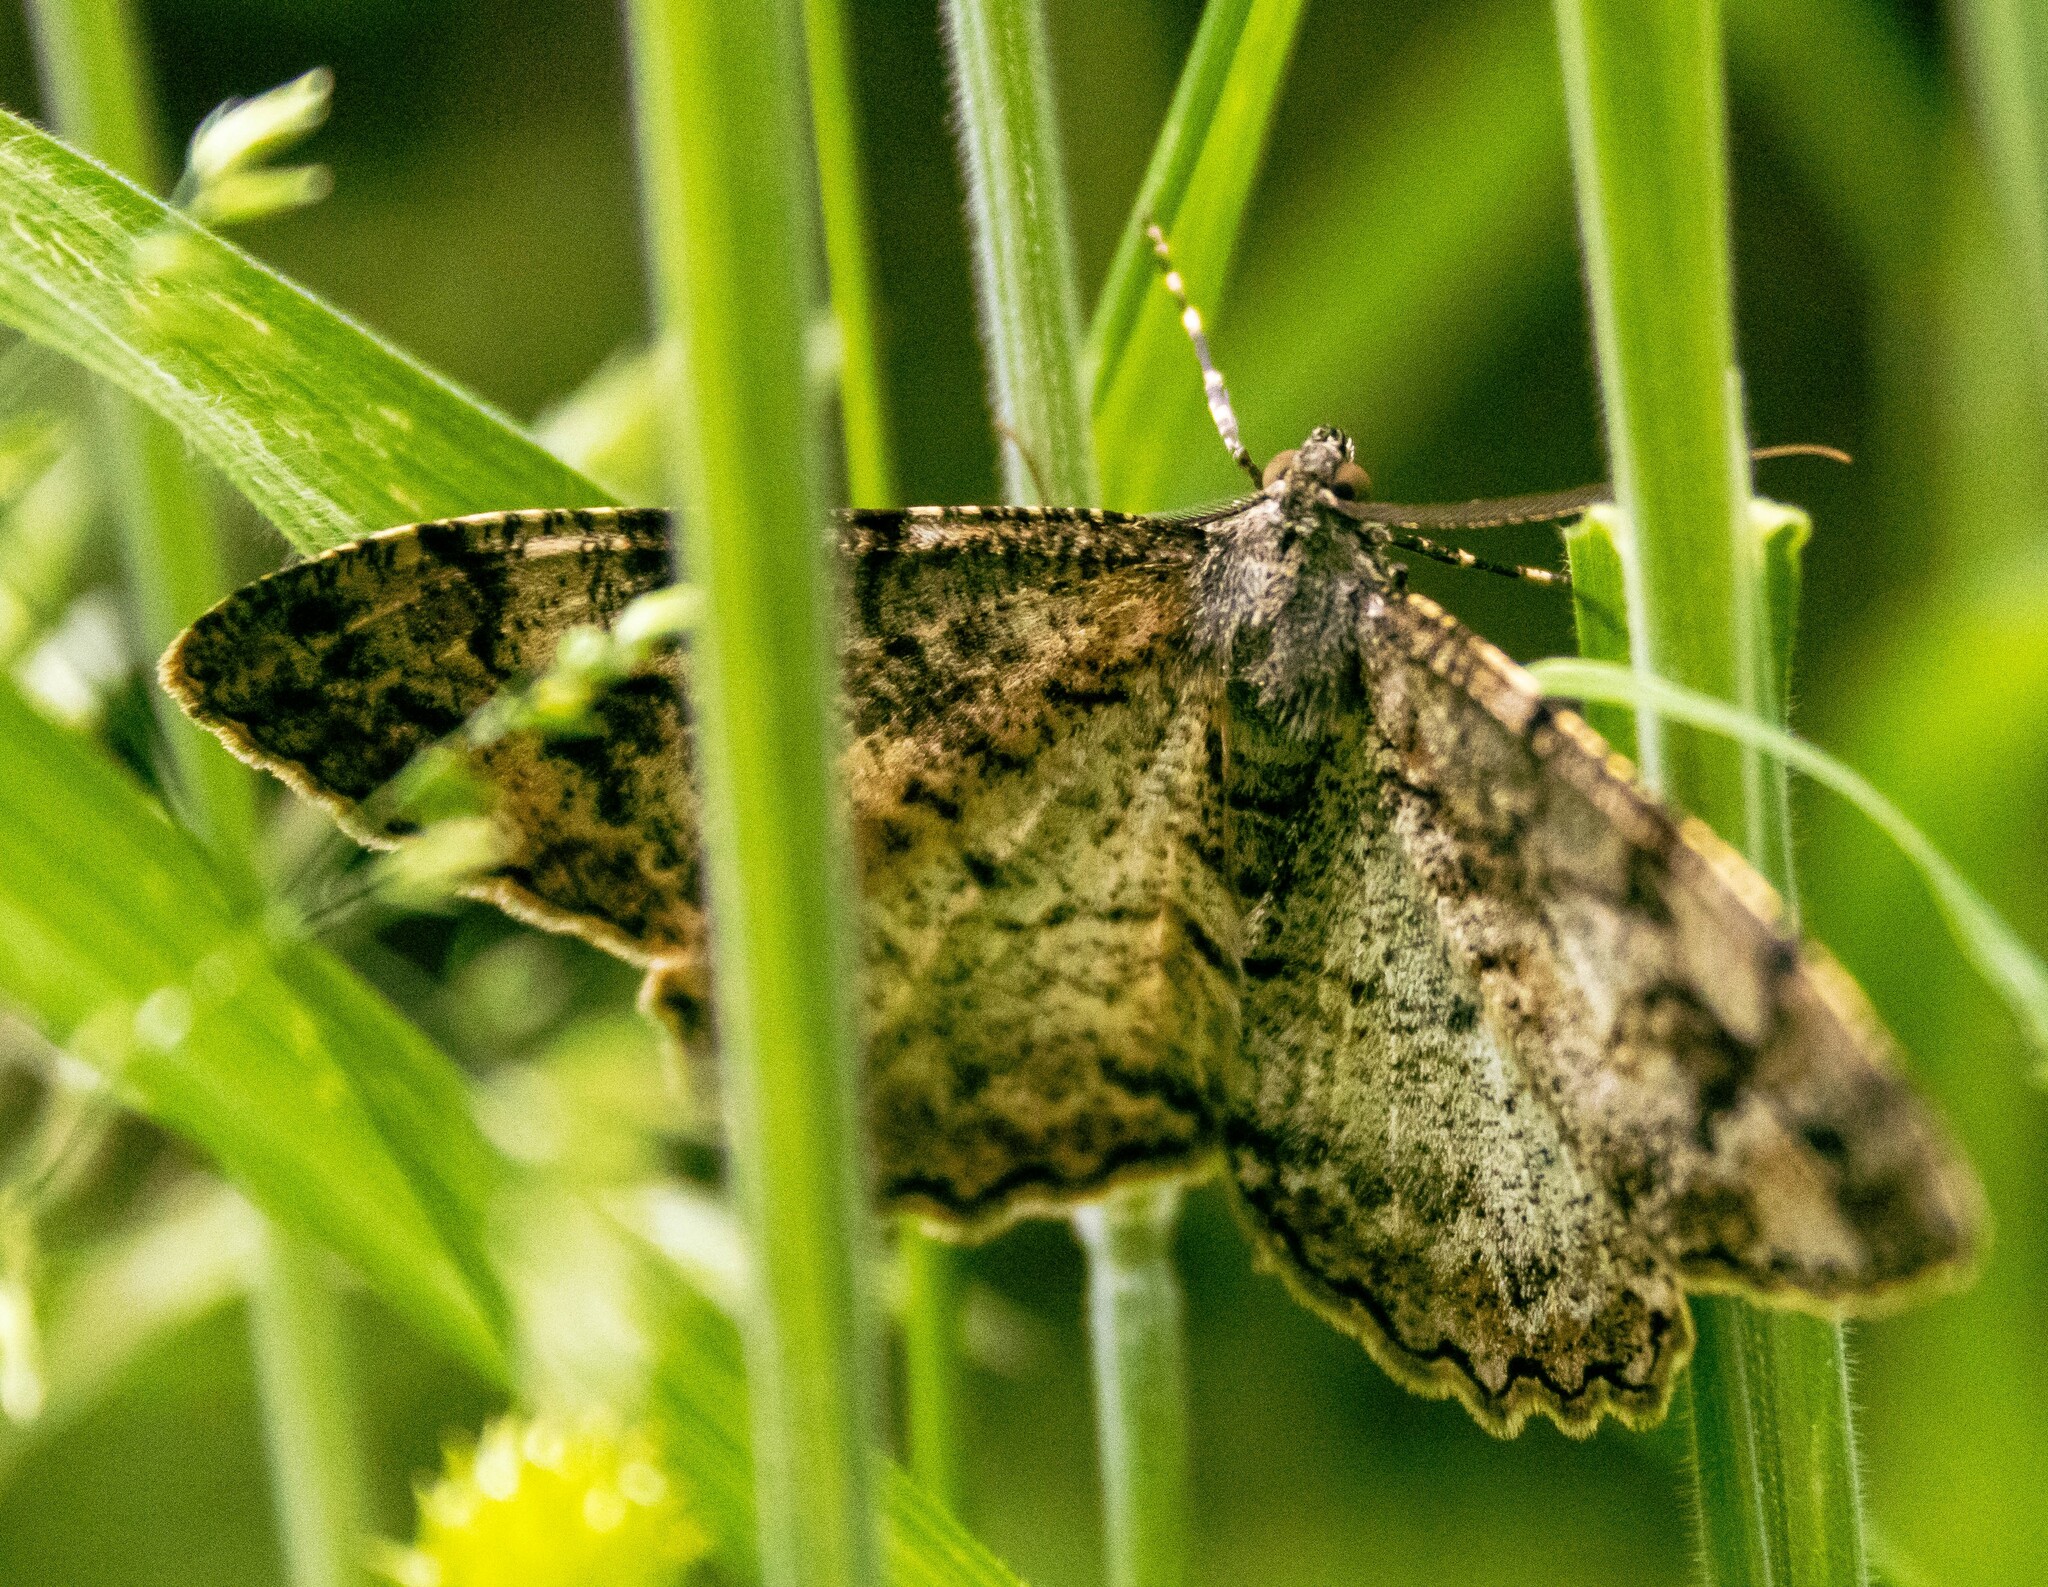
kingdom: Animalia
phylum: Arthropoda
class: Insecta
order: Lepidoptera
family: Geometridae
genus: Alcis
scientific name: Alcis repandata
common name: Mottled beauty
